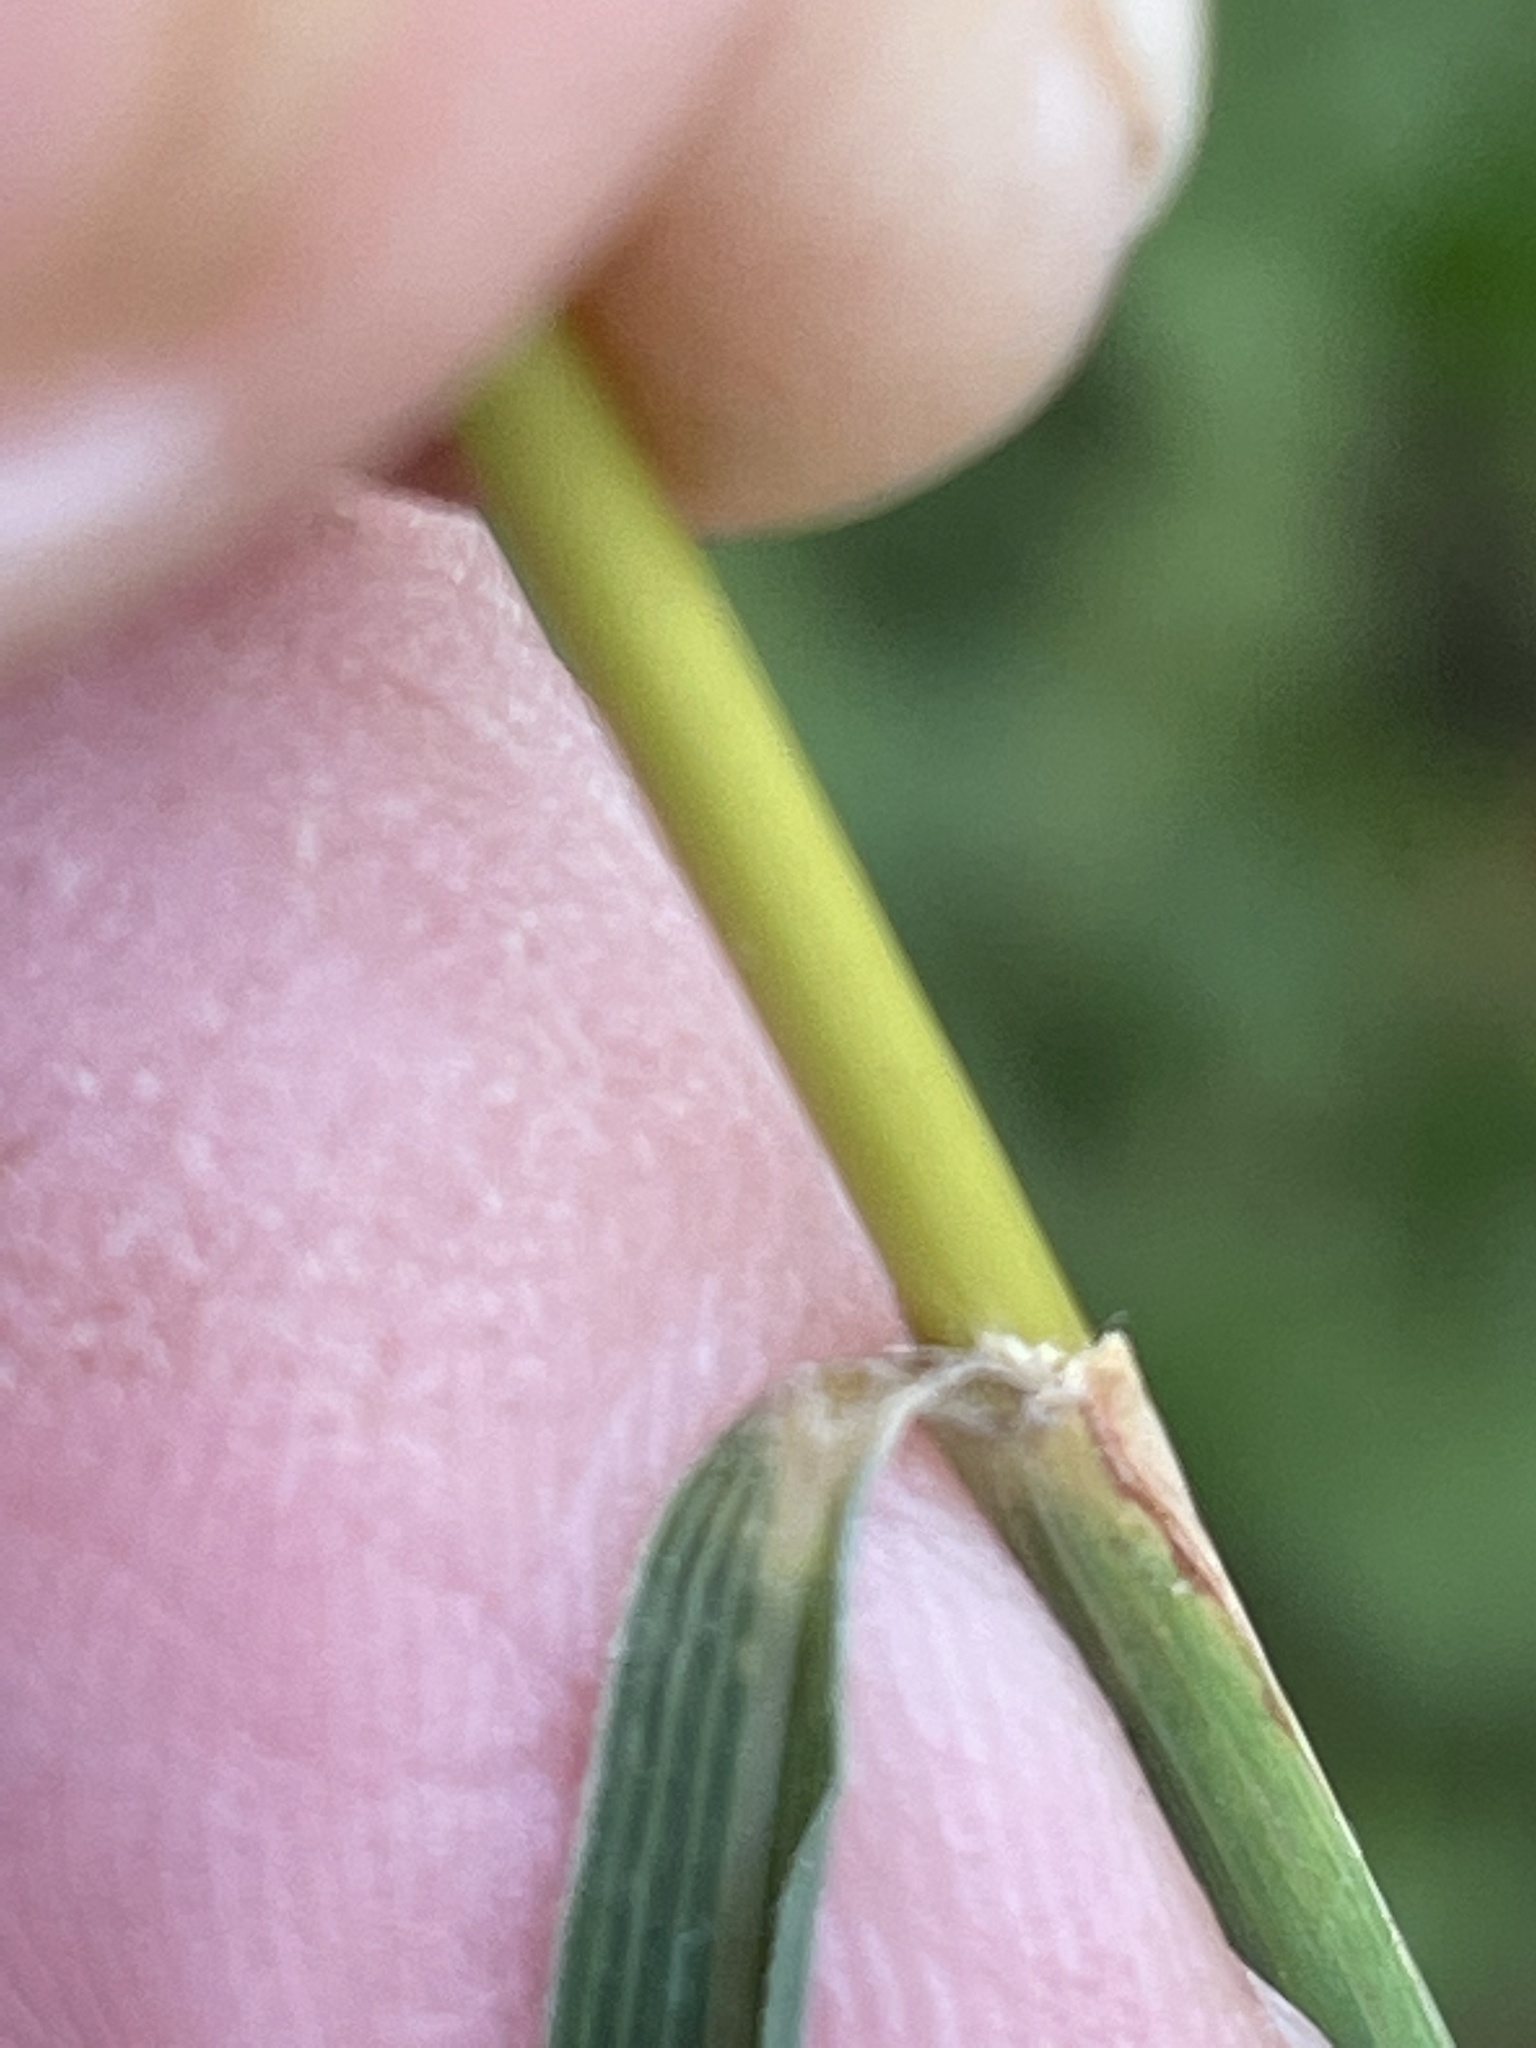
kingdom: Plantae
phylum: Tracheophyta
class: Liliopsida
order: Poales
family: Poaceae
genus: Sorghastrum
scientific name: Sorghastrum elliottii
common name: Slender indian grass
